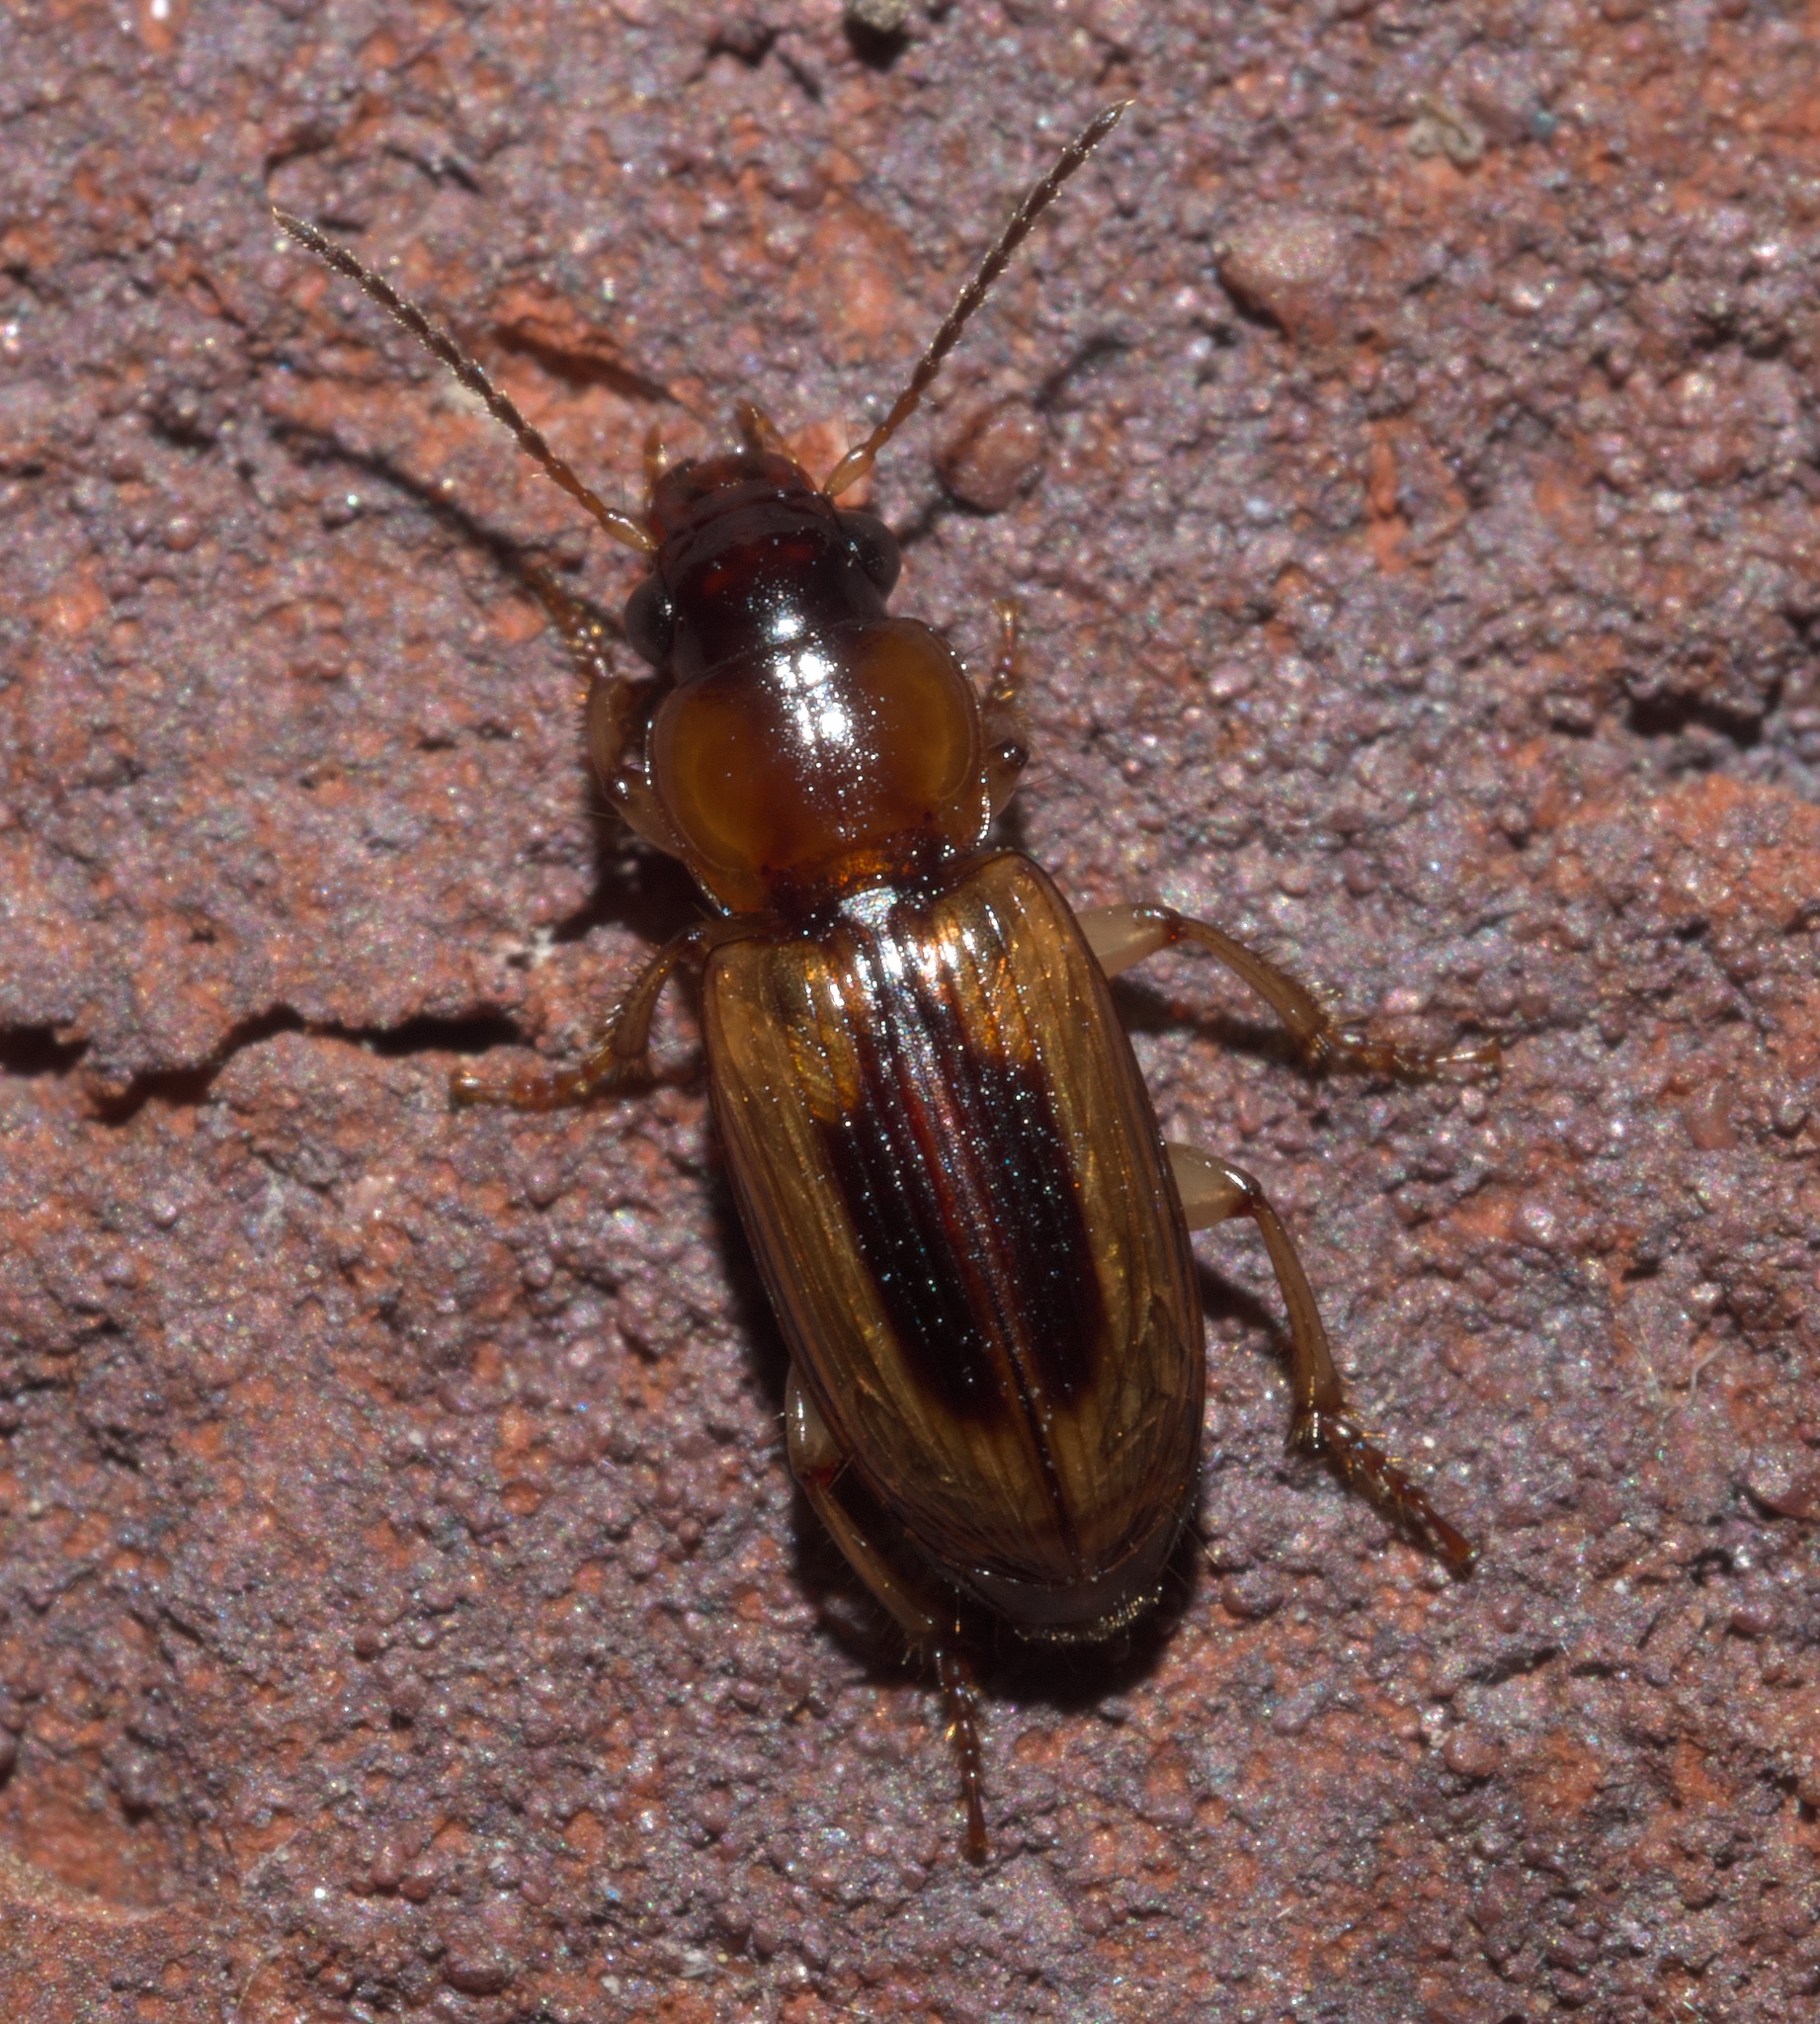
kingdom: Animalia
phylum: Arthropoda
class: Insecta
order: Coleoptera
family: Carabidae
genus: Stenolophus
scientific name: Stenolophus lecontei
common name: Leconte's seedcorn beetle
